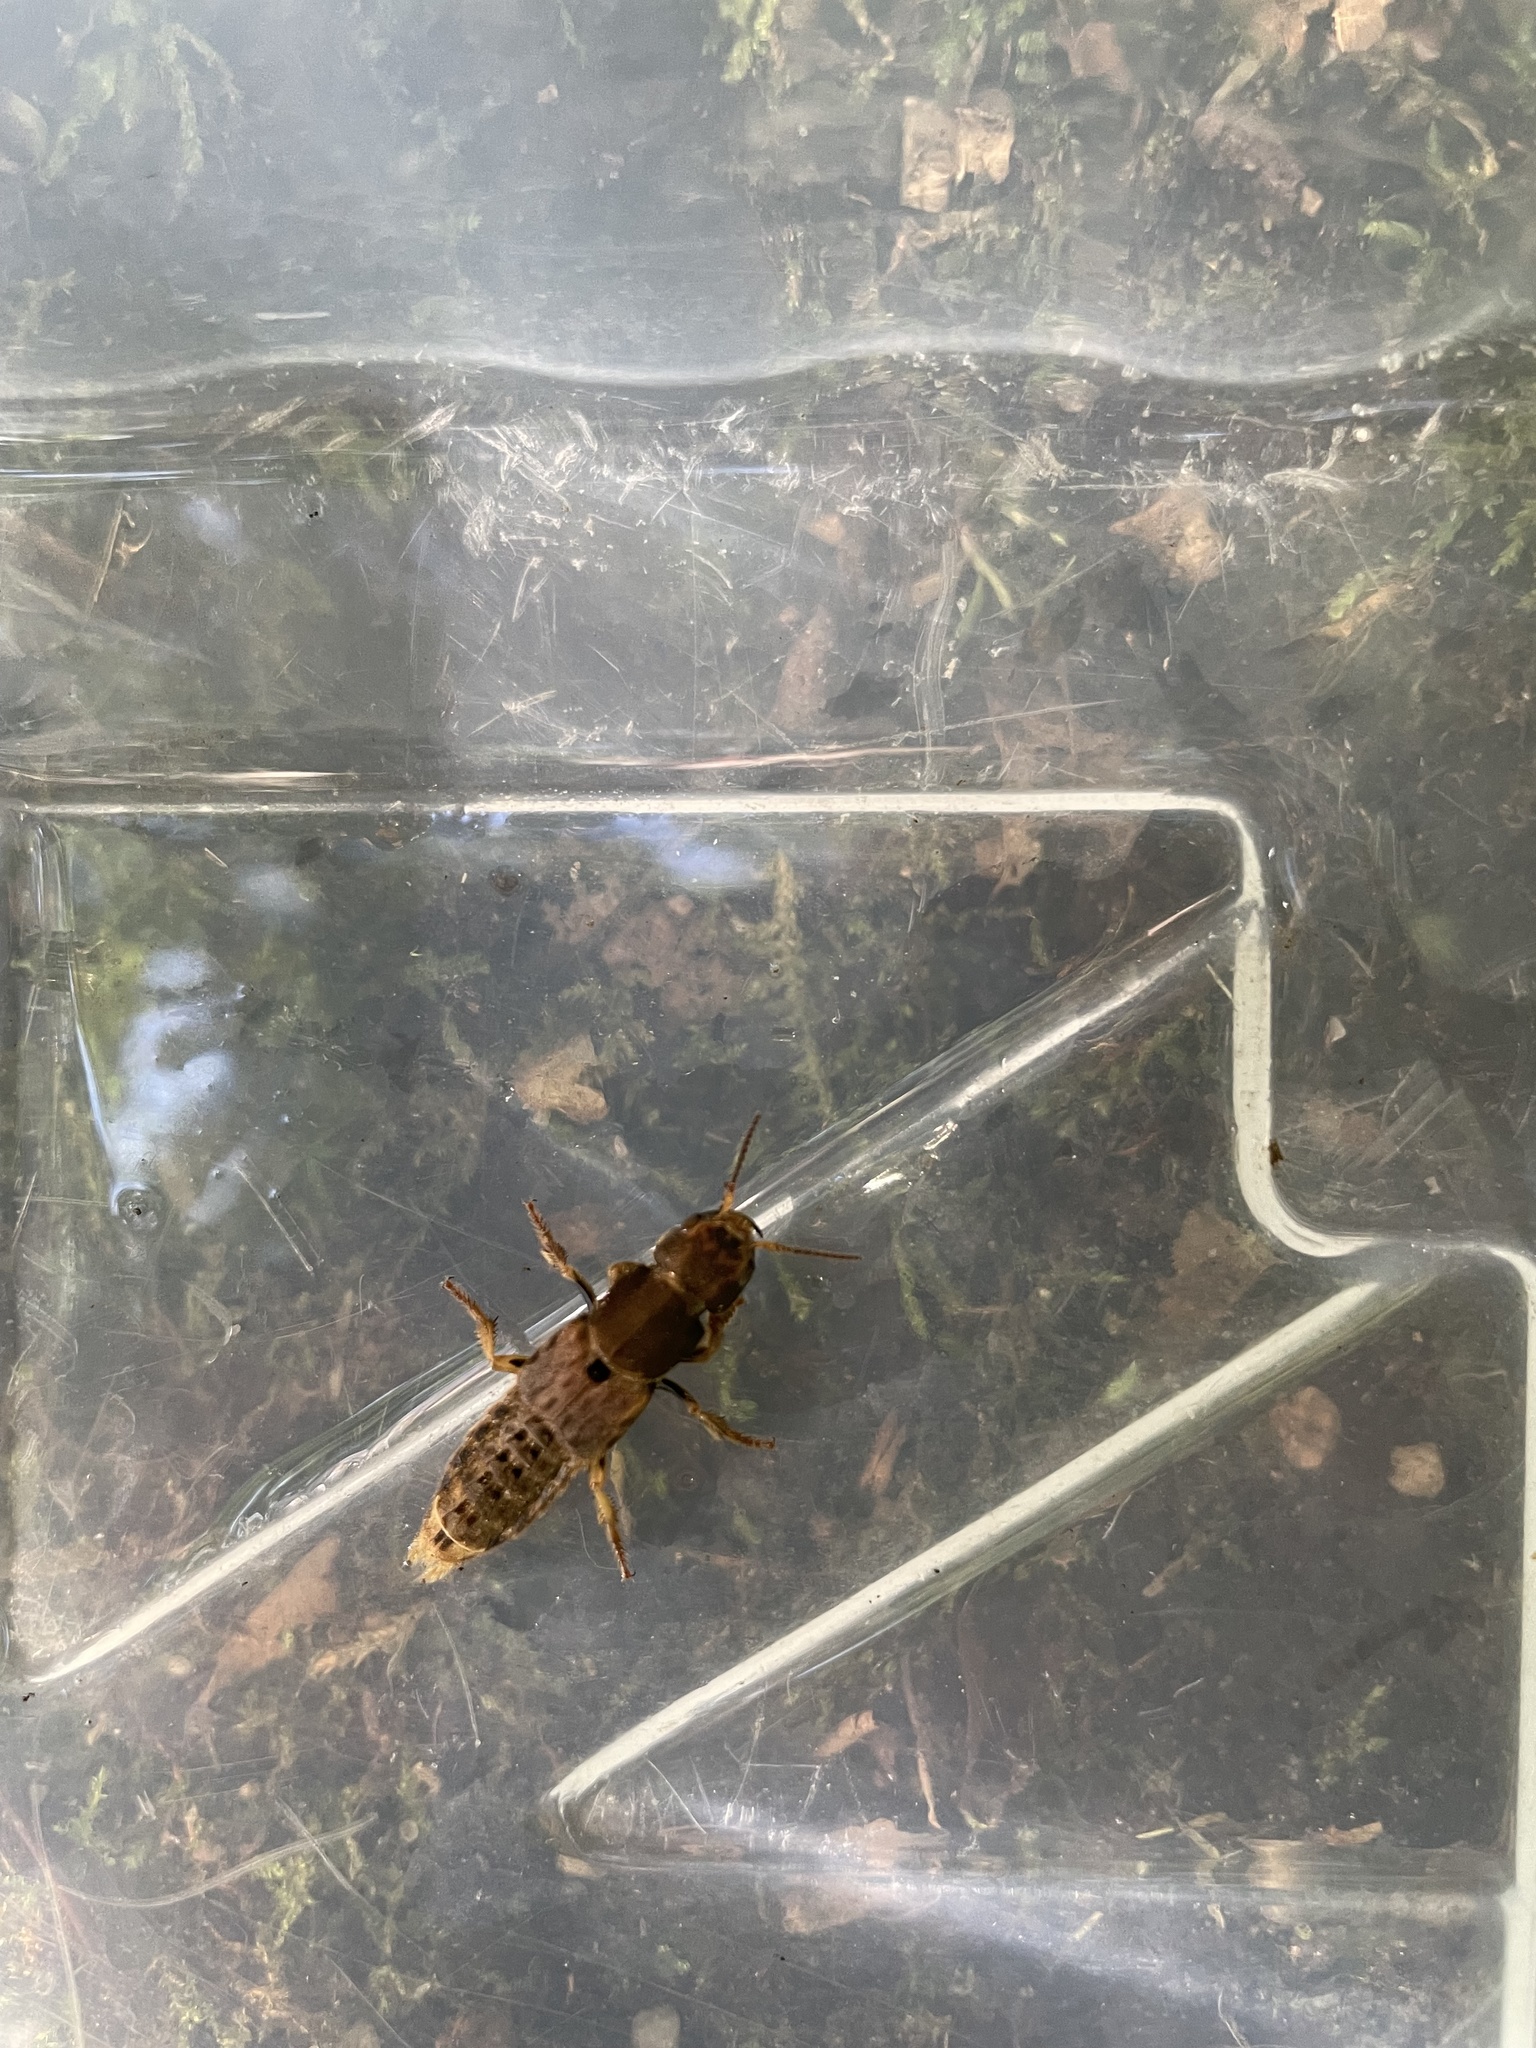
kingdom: Animalia
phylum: Arthropoda
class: Insecta
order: Coleoptera
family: Staphylinidae
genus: Platydracus
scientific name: Platydracus maculosus
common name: Brown rove beetle
